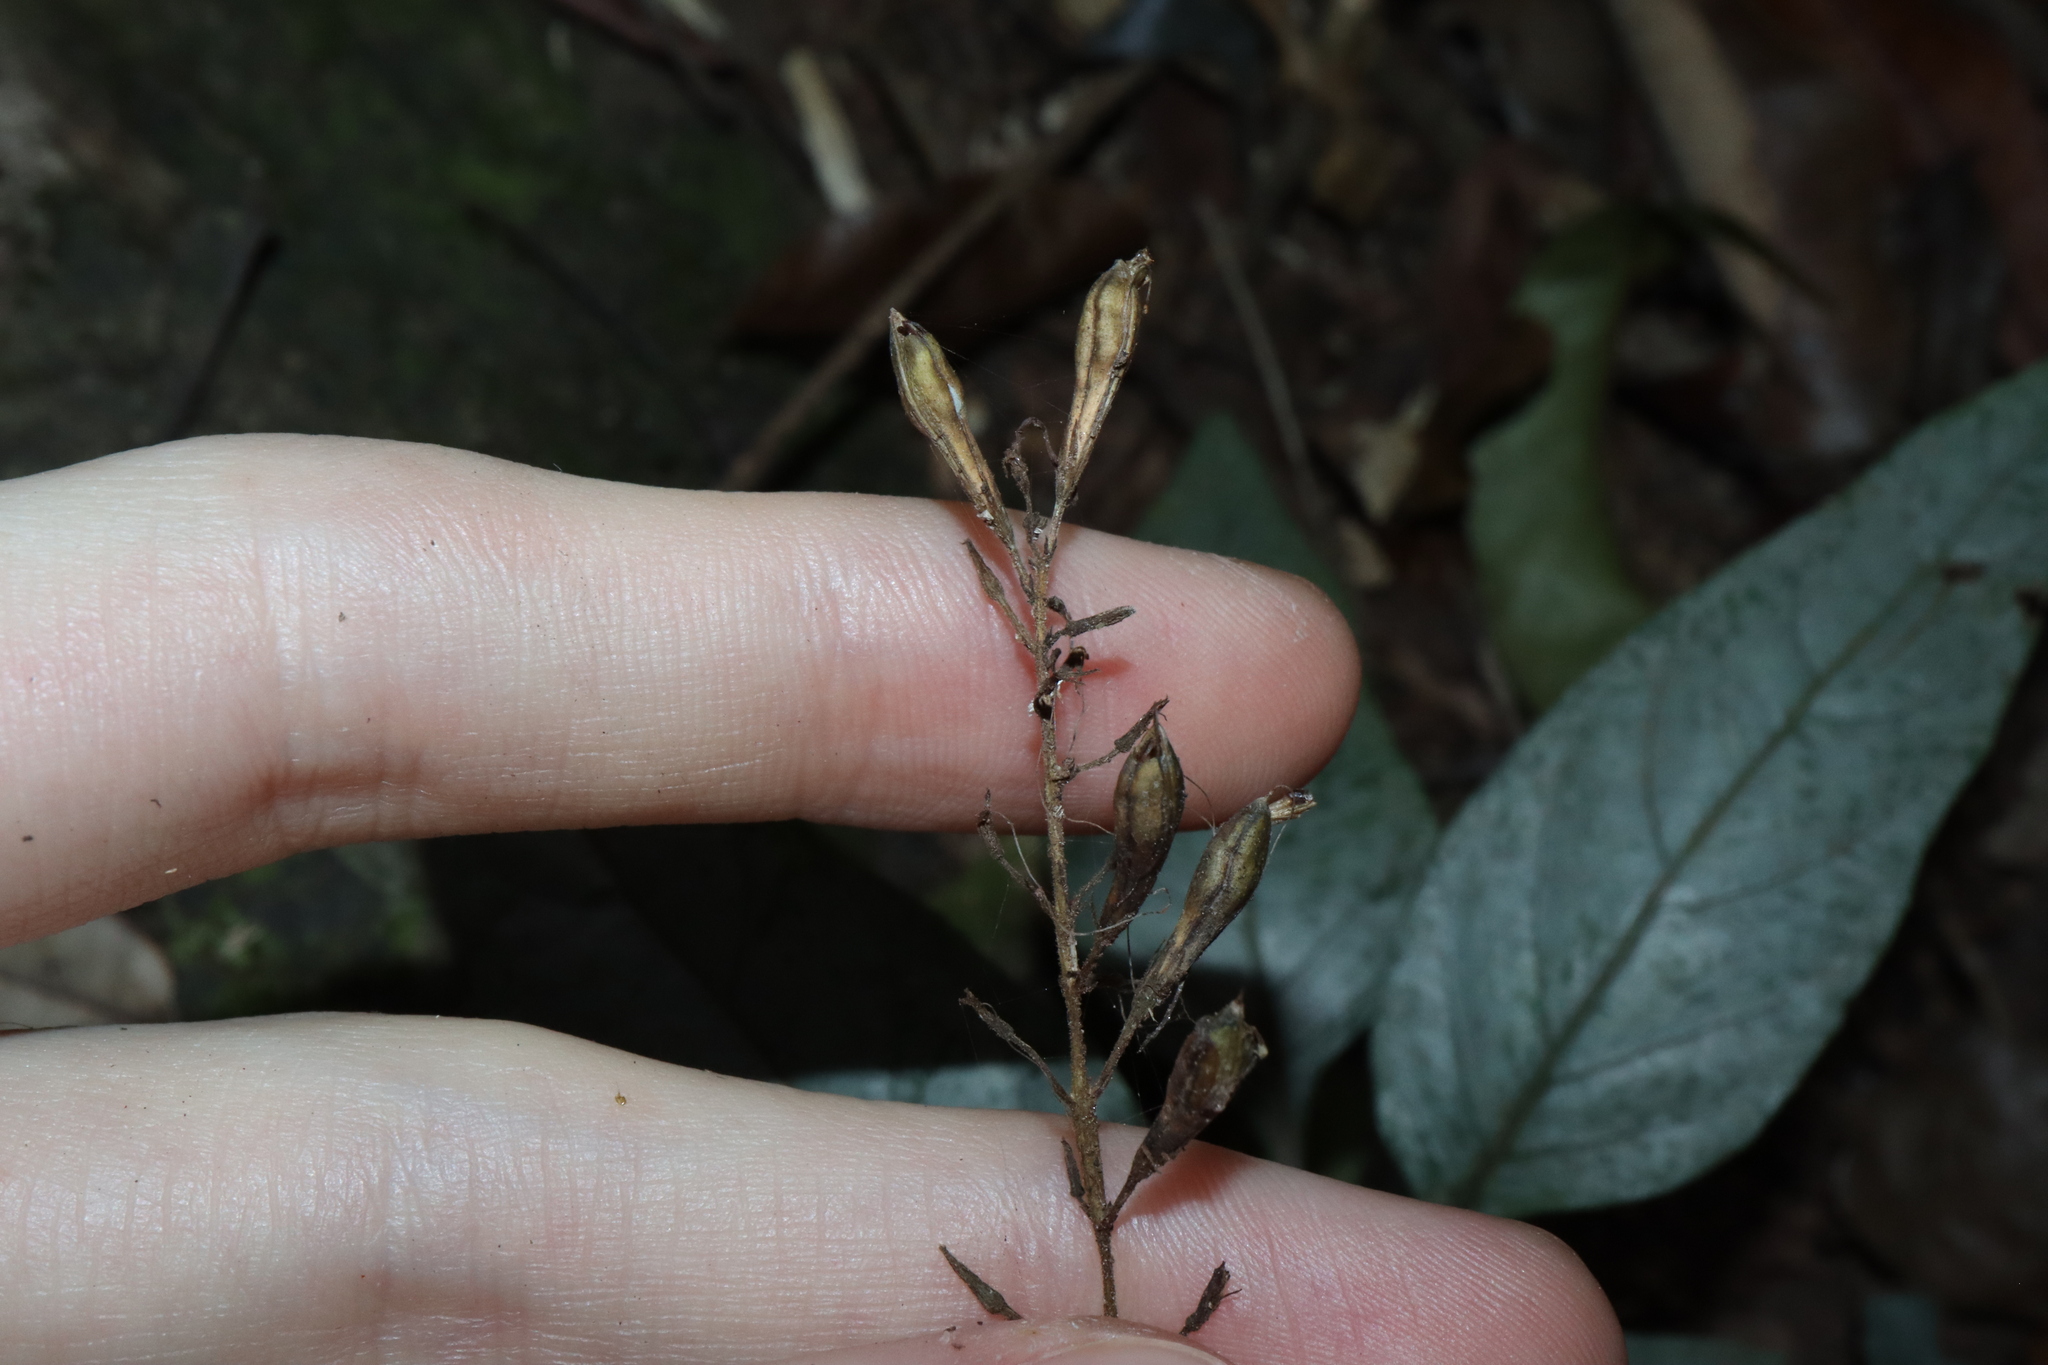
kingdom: Plantae
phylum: Tracheophyta
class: Magnoliopsida
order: Lamiales
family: Acanthaceae
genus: Pseuderanthemum
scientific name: Pseuderanthemum variabile
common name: Night and afternoon
